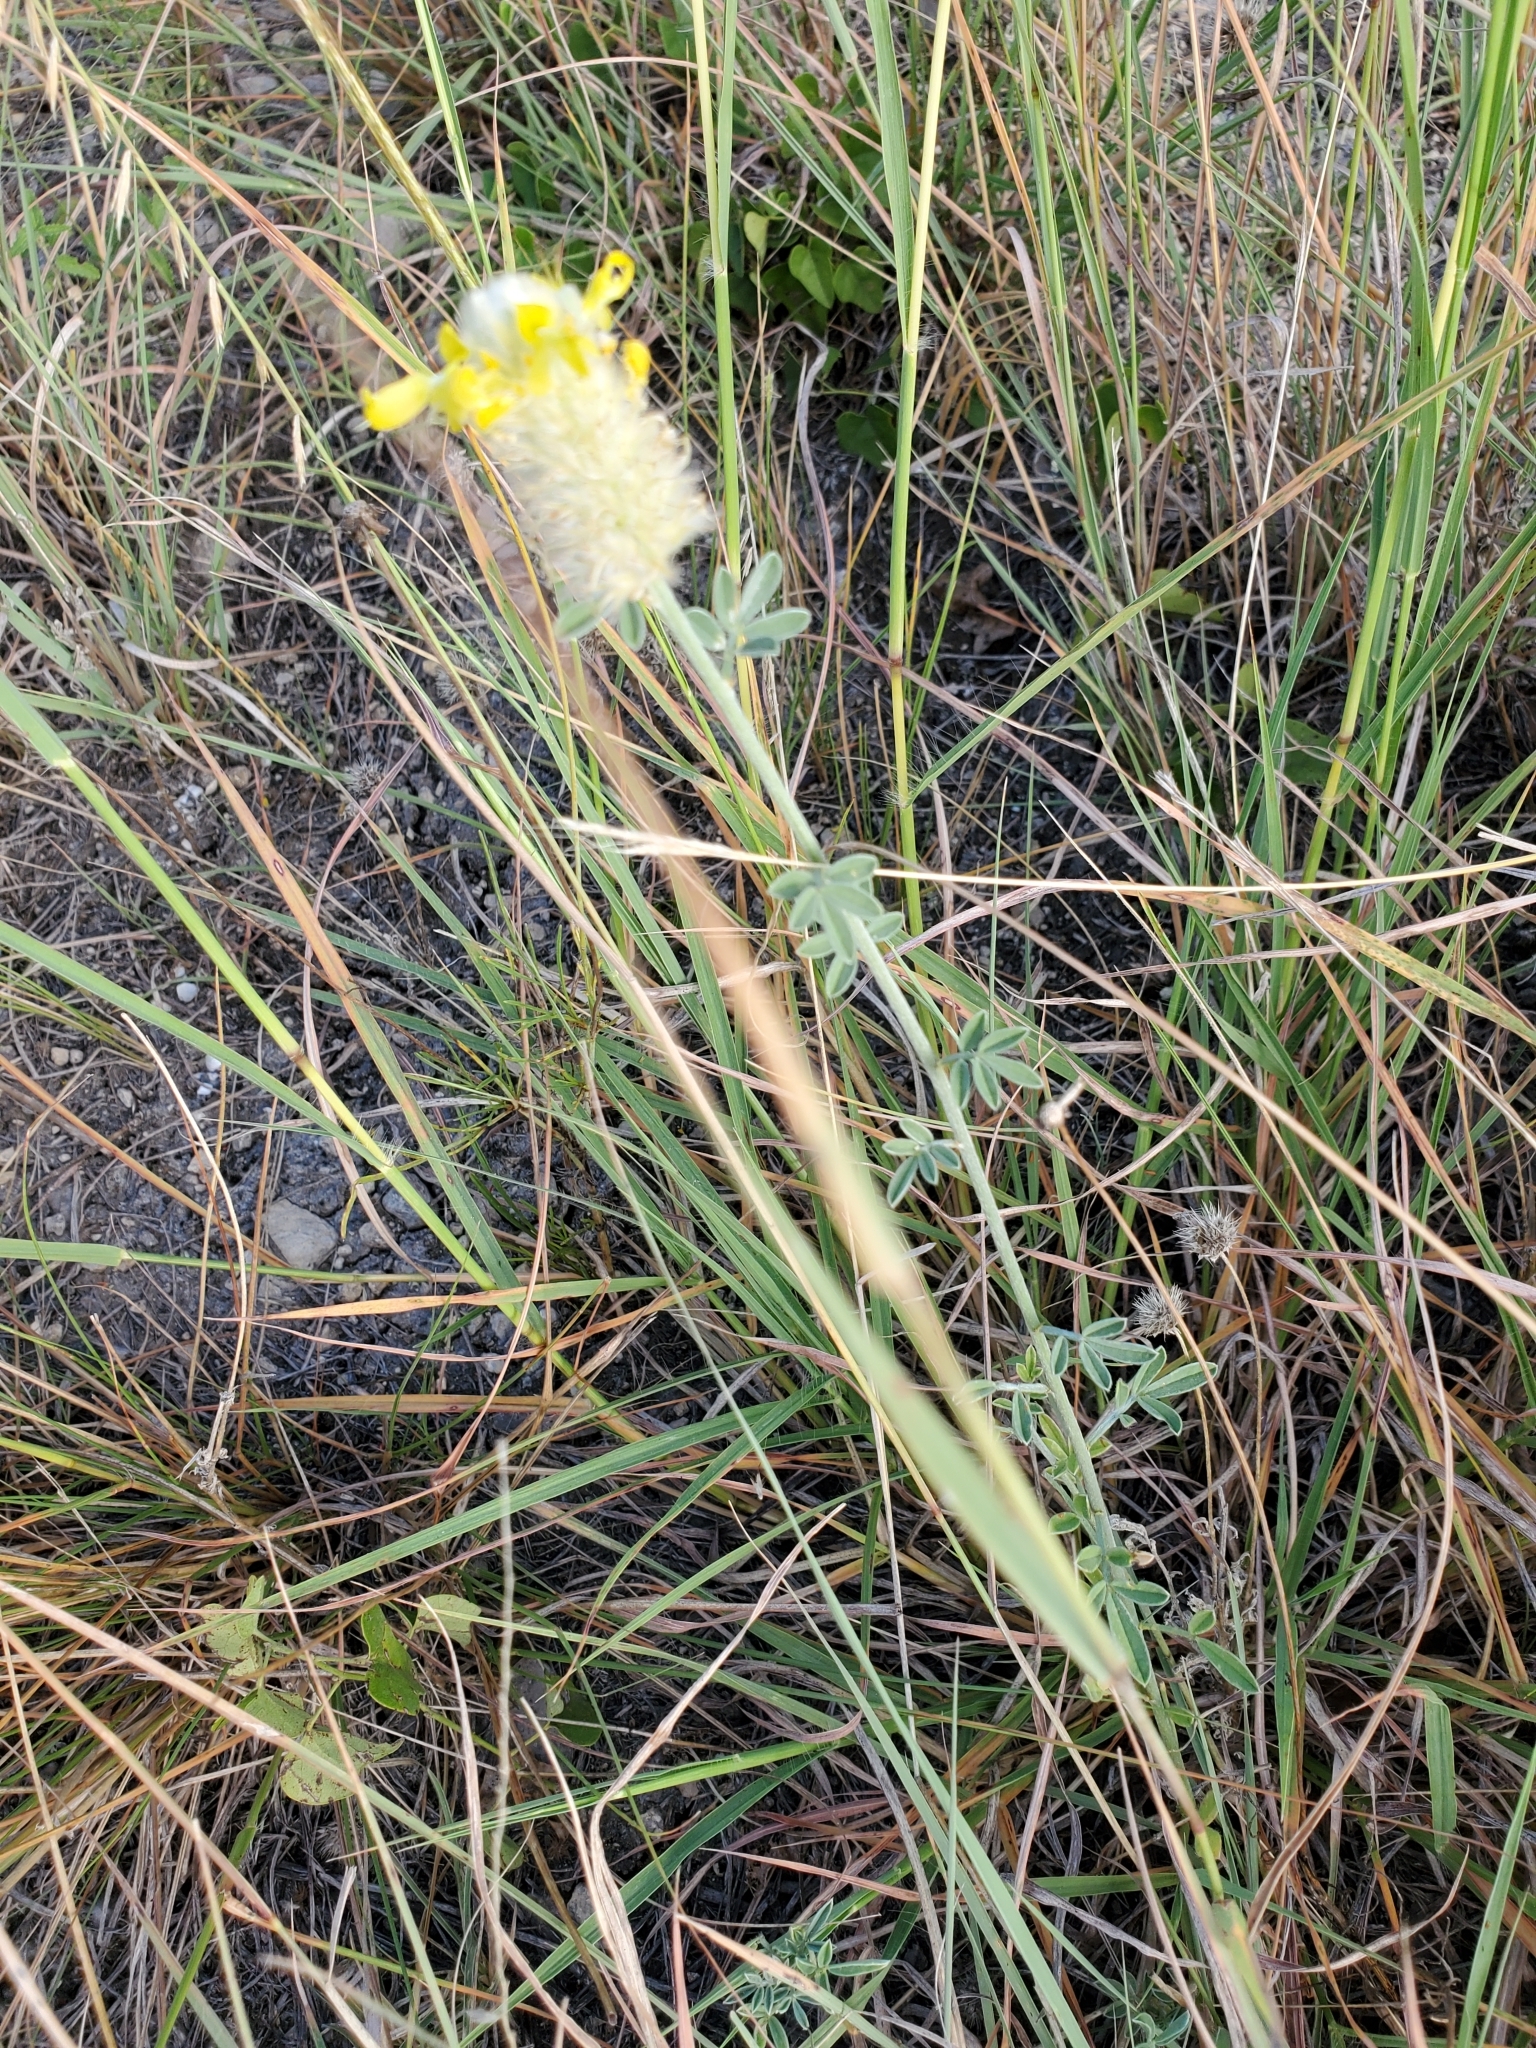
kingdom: Plantae
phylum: Tracheophyta
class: Magnoliopsida
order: Fabales
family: Fabaceae
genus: Dalea
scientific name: Dalea aurea
